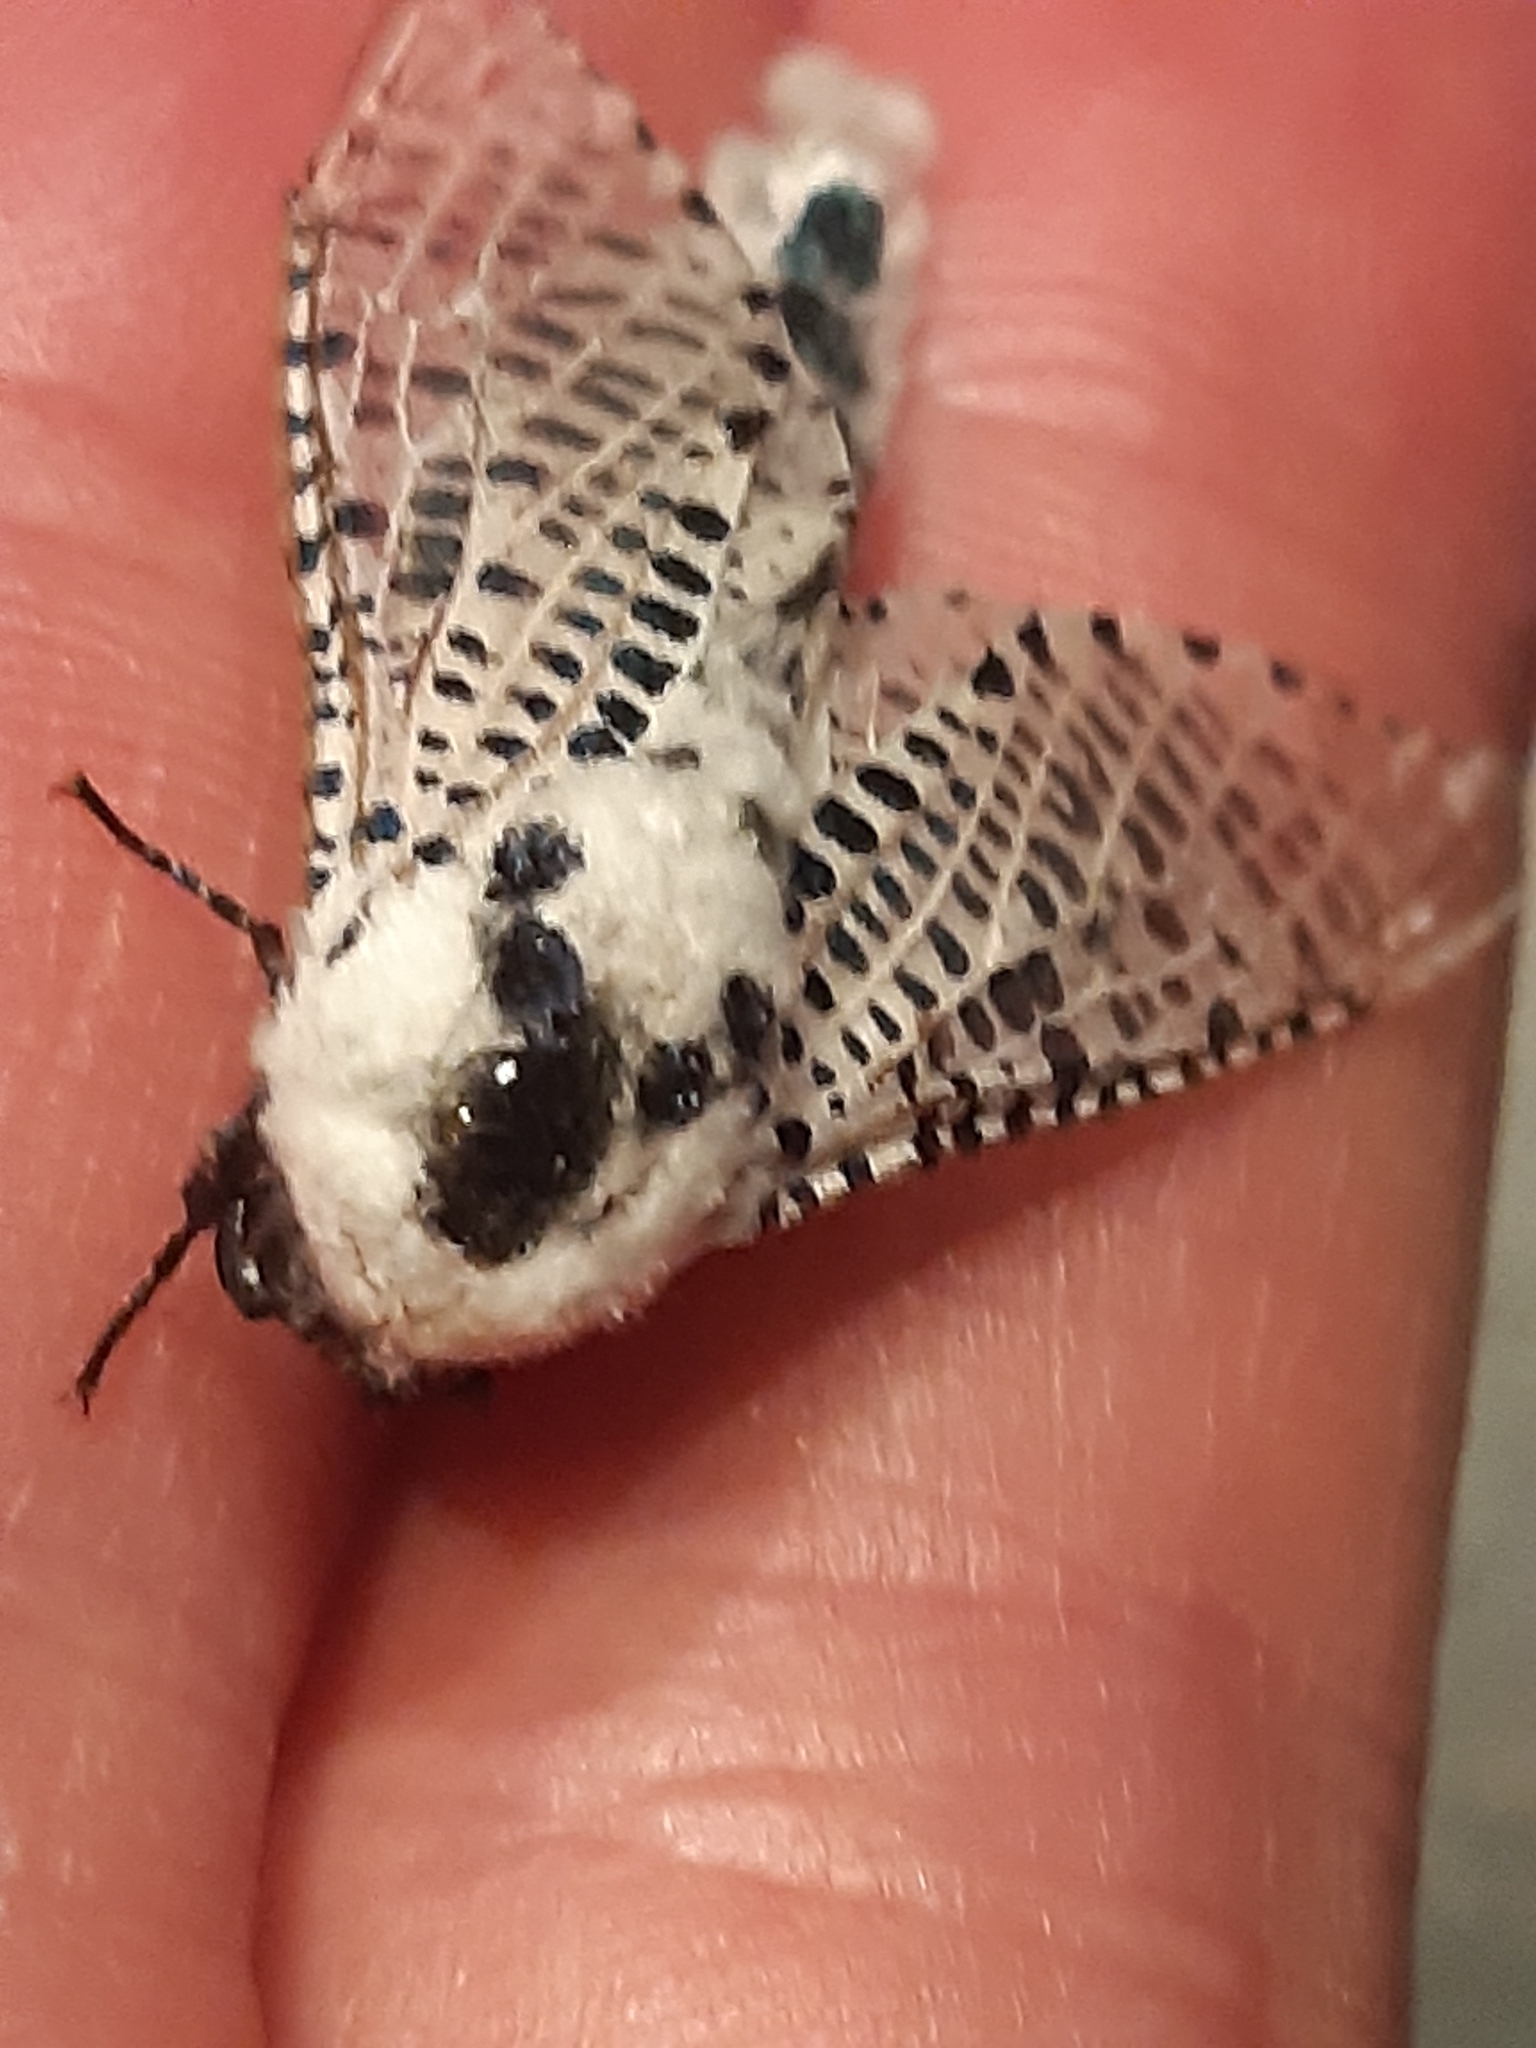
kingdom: Animalia
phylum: Arthropoda
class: Insecta
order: Lepidoptera
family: Cossidae
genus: Zeuzera
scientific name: Zeuzera pyrina
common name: Leopard moth
